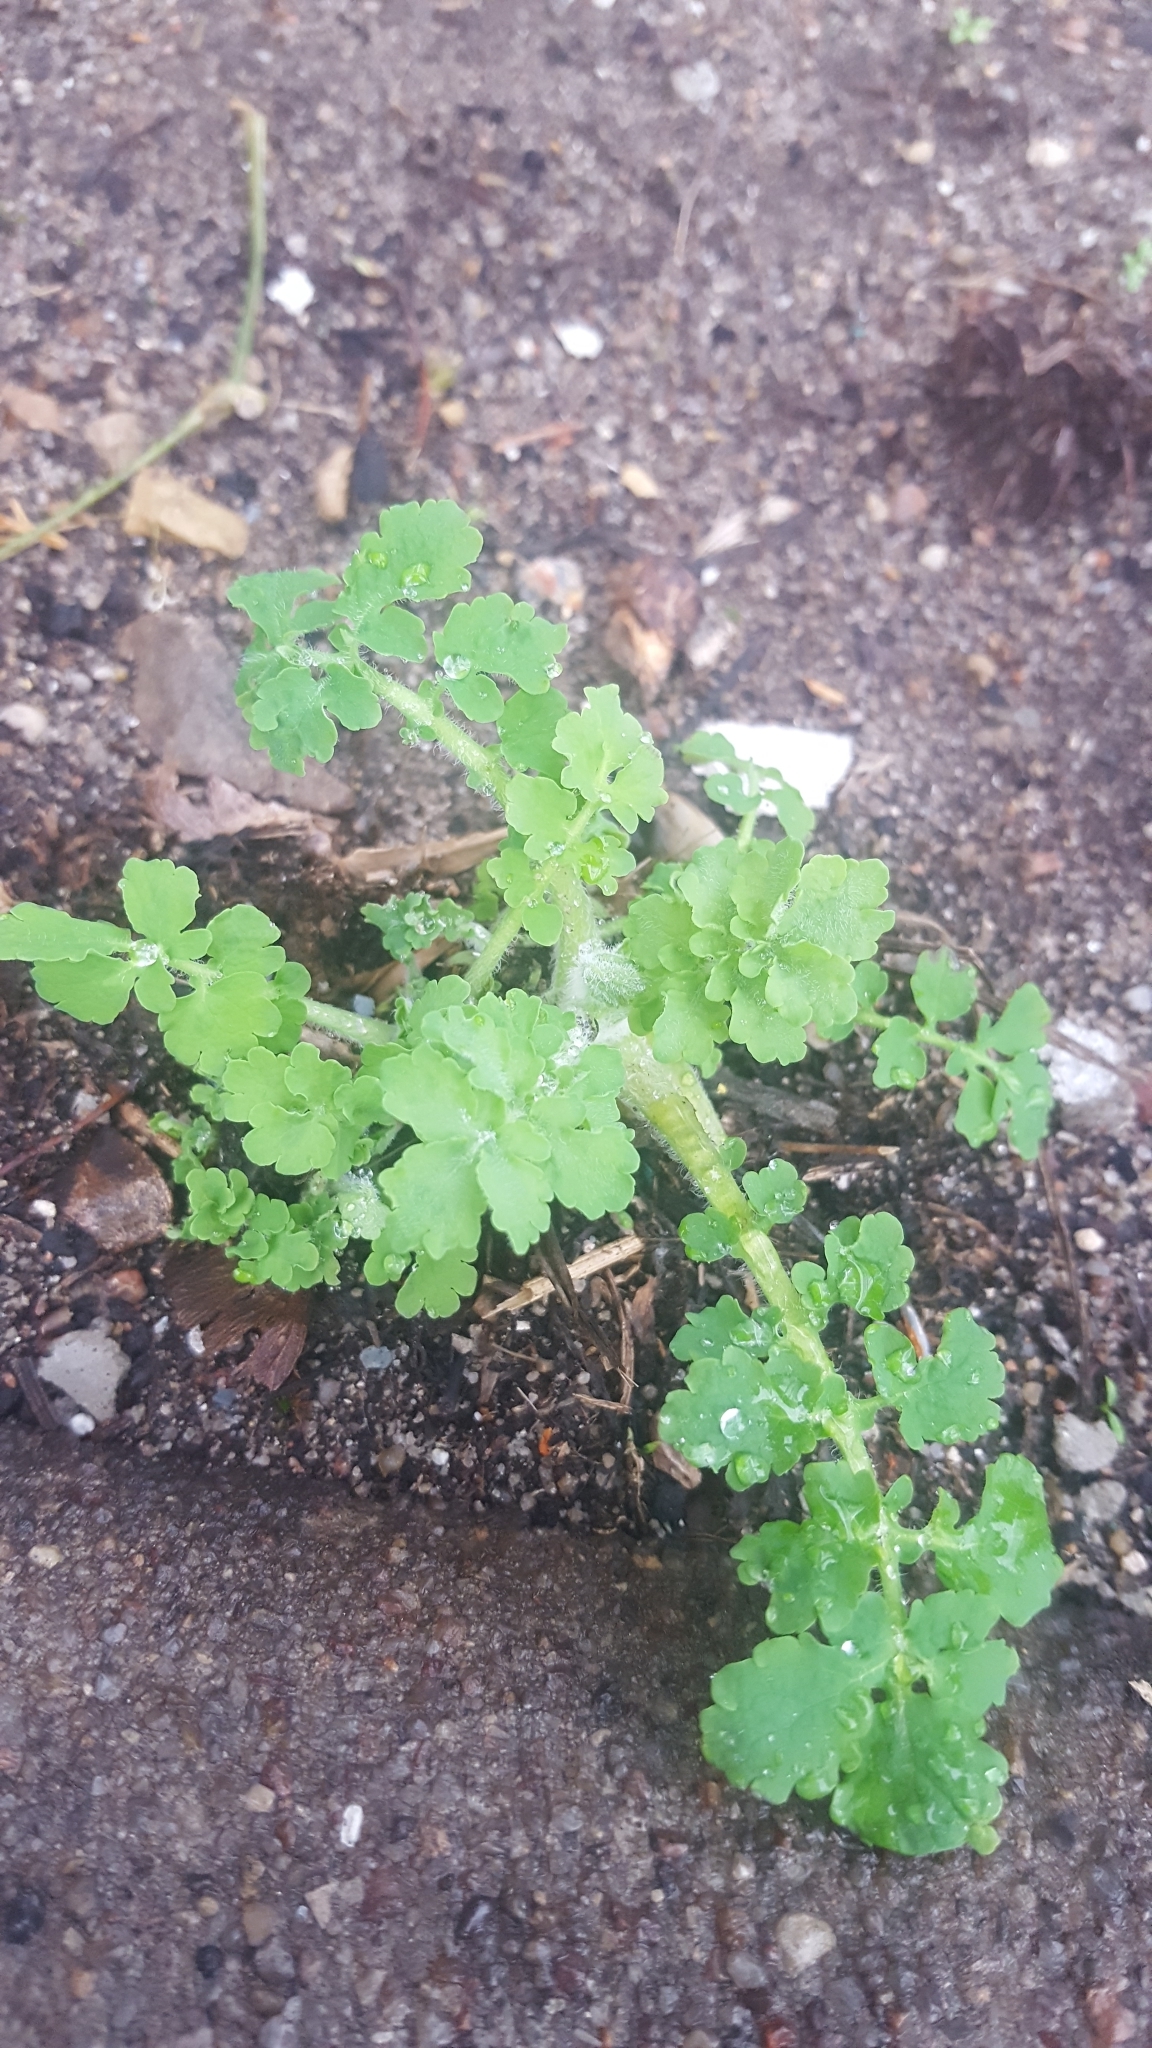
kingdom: Plantae
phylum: Tracheophyta
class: Magnoliopsida
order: Ranunculales
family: Papaveraceae
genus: Chelidonium
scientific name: Chelidonium majus
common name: Greater celandine
